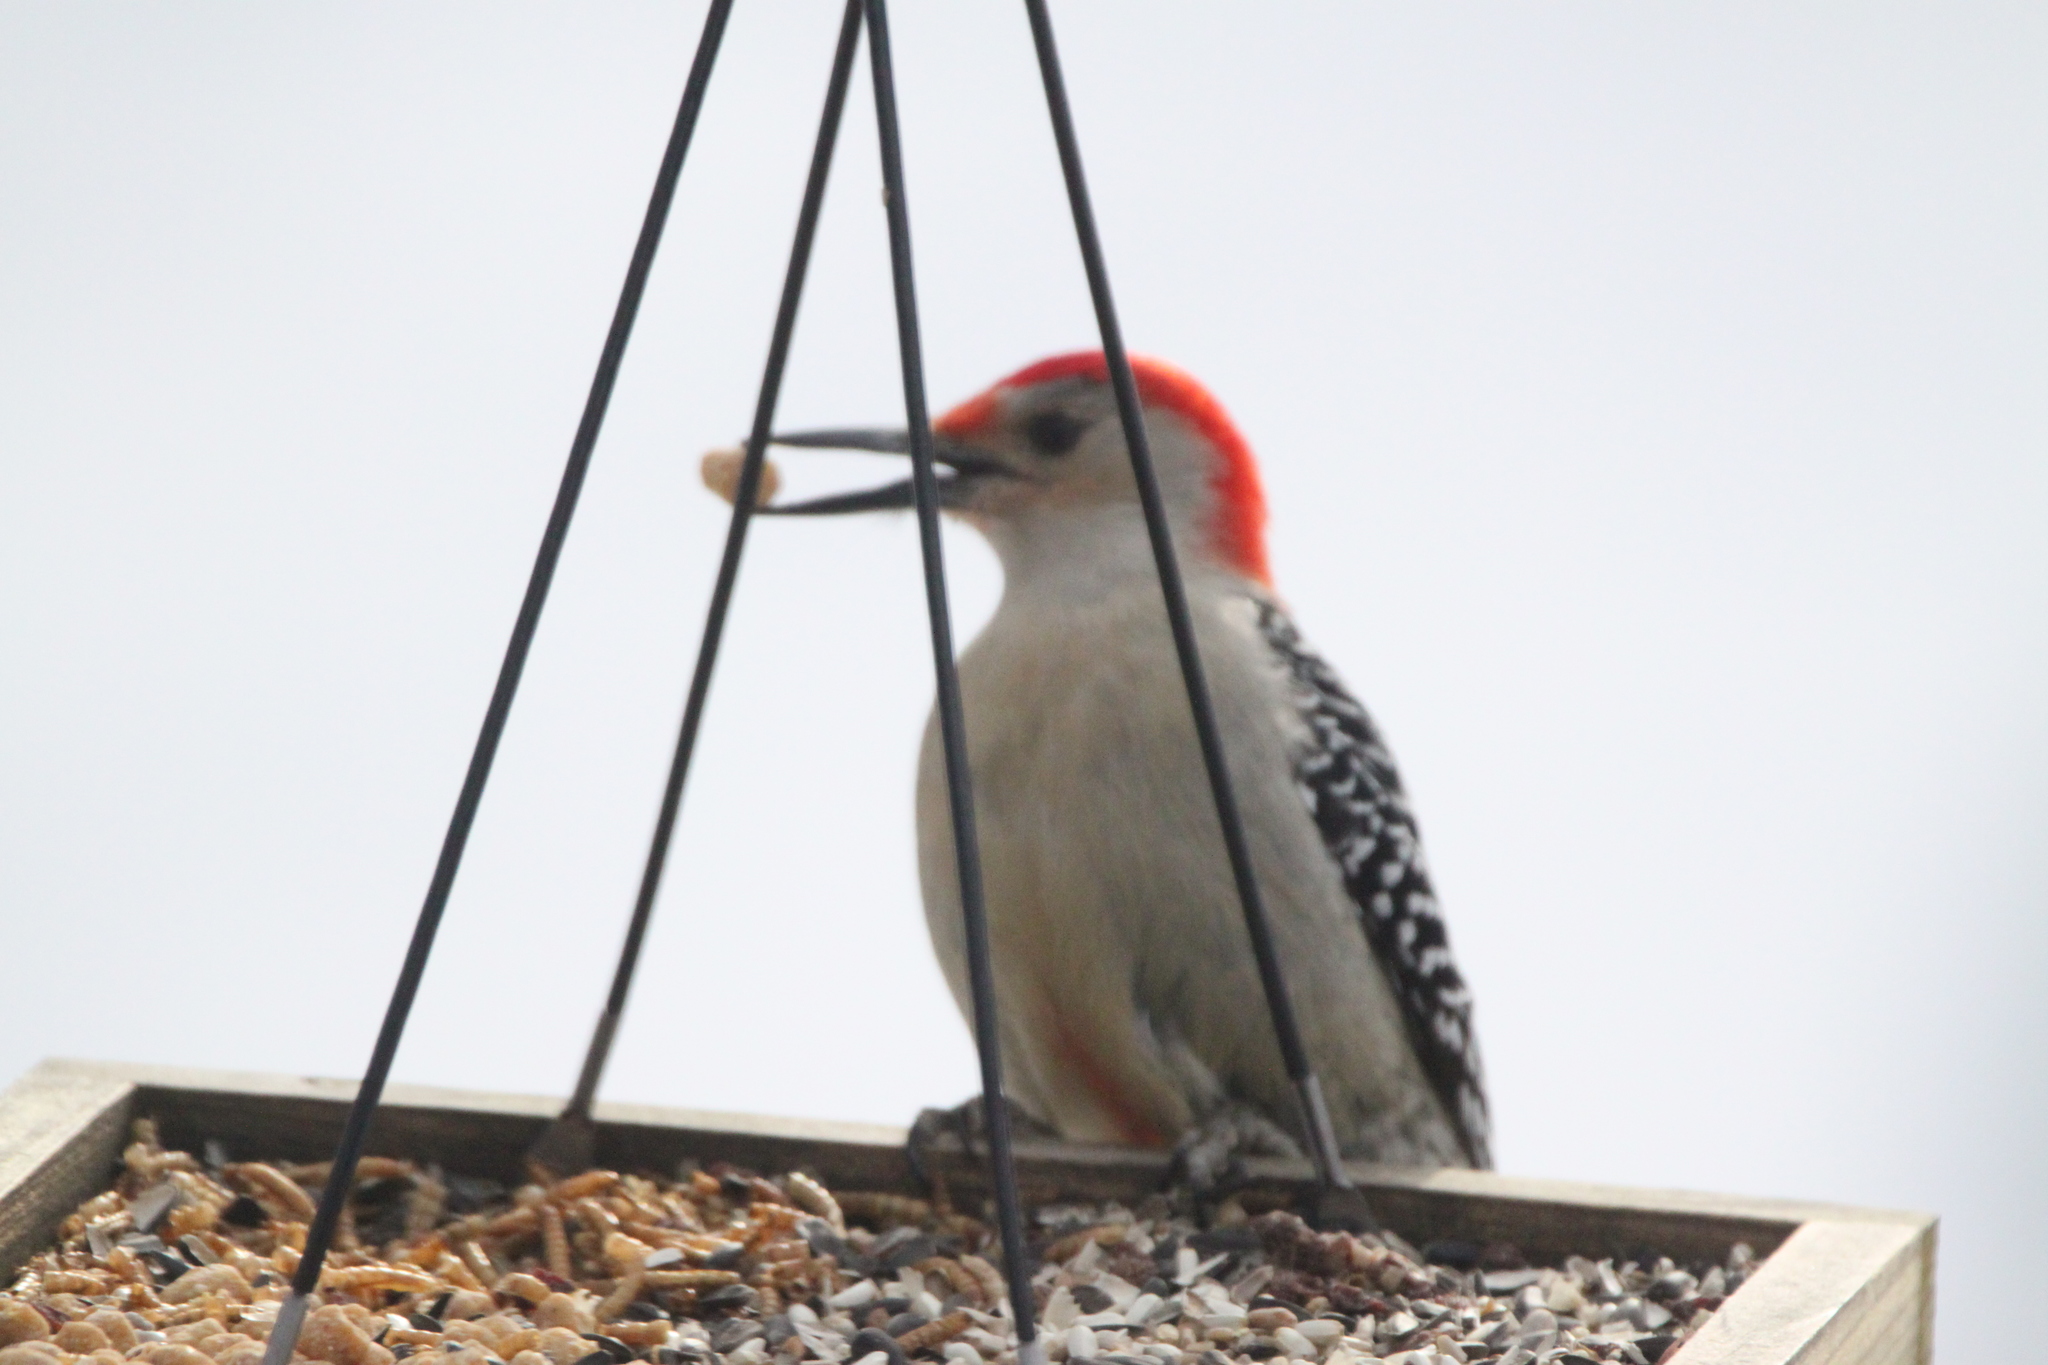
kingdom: Animalia
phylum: Chordata
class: Aves
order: Piciformes
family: Picidae
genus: Melanerpes
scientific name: Melanerpes carolinus
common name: Red-bellied woodpecker
